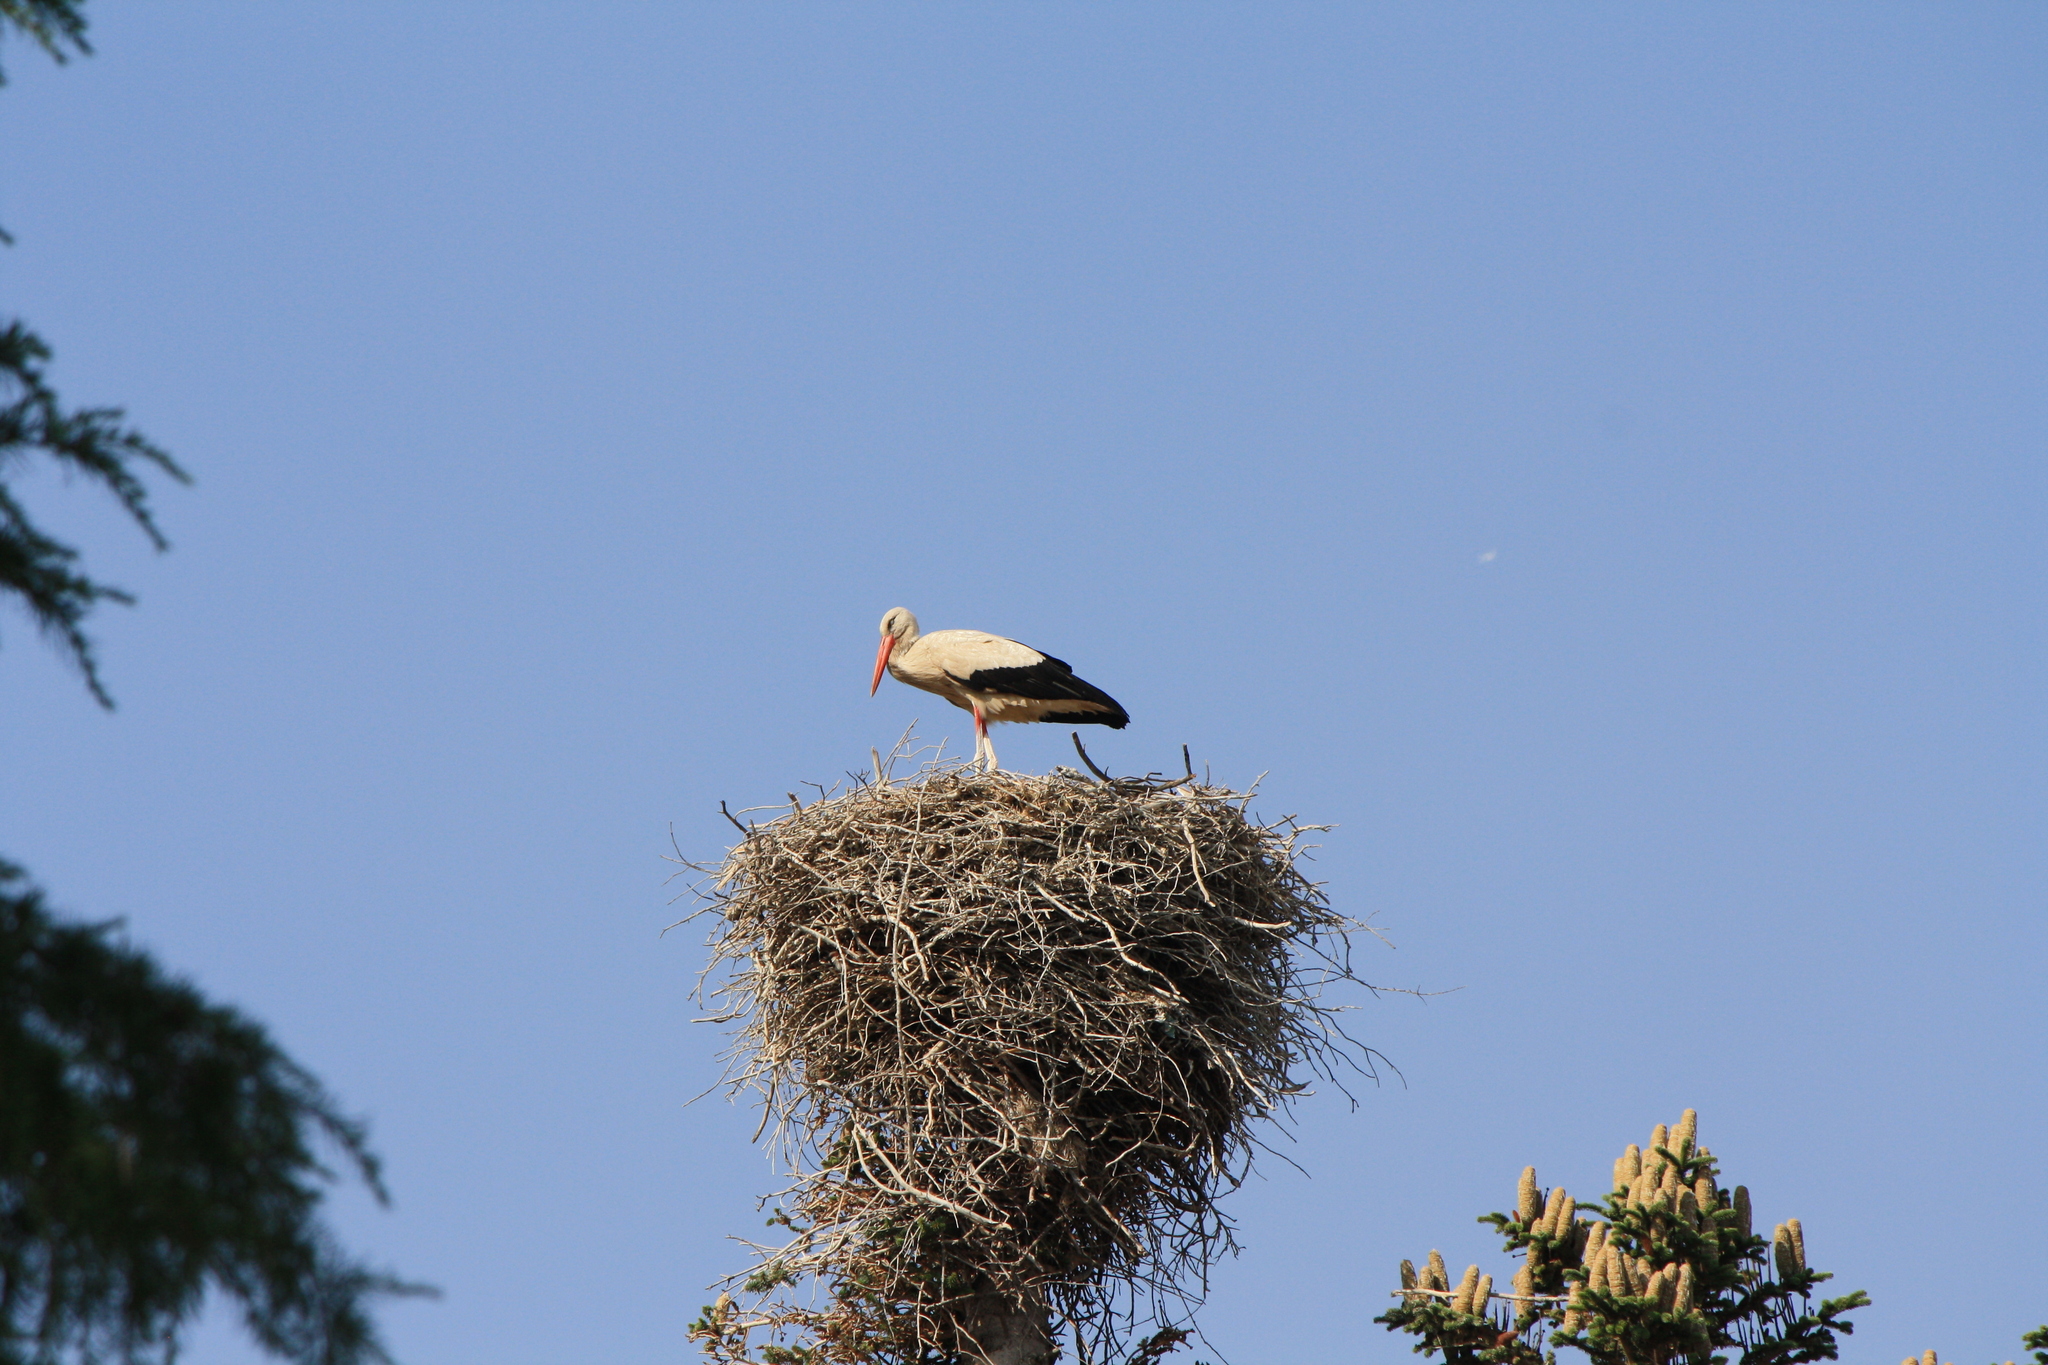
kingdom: Animalia
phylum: Chordata
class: Aves
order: Ciconiiformes
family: Ciconiidae
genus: Ciconia
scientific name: Ciconia ciconia
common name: White stork
